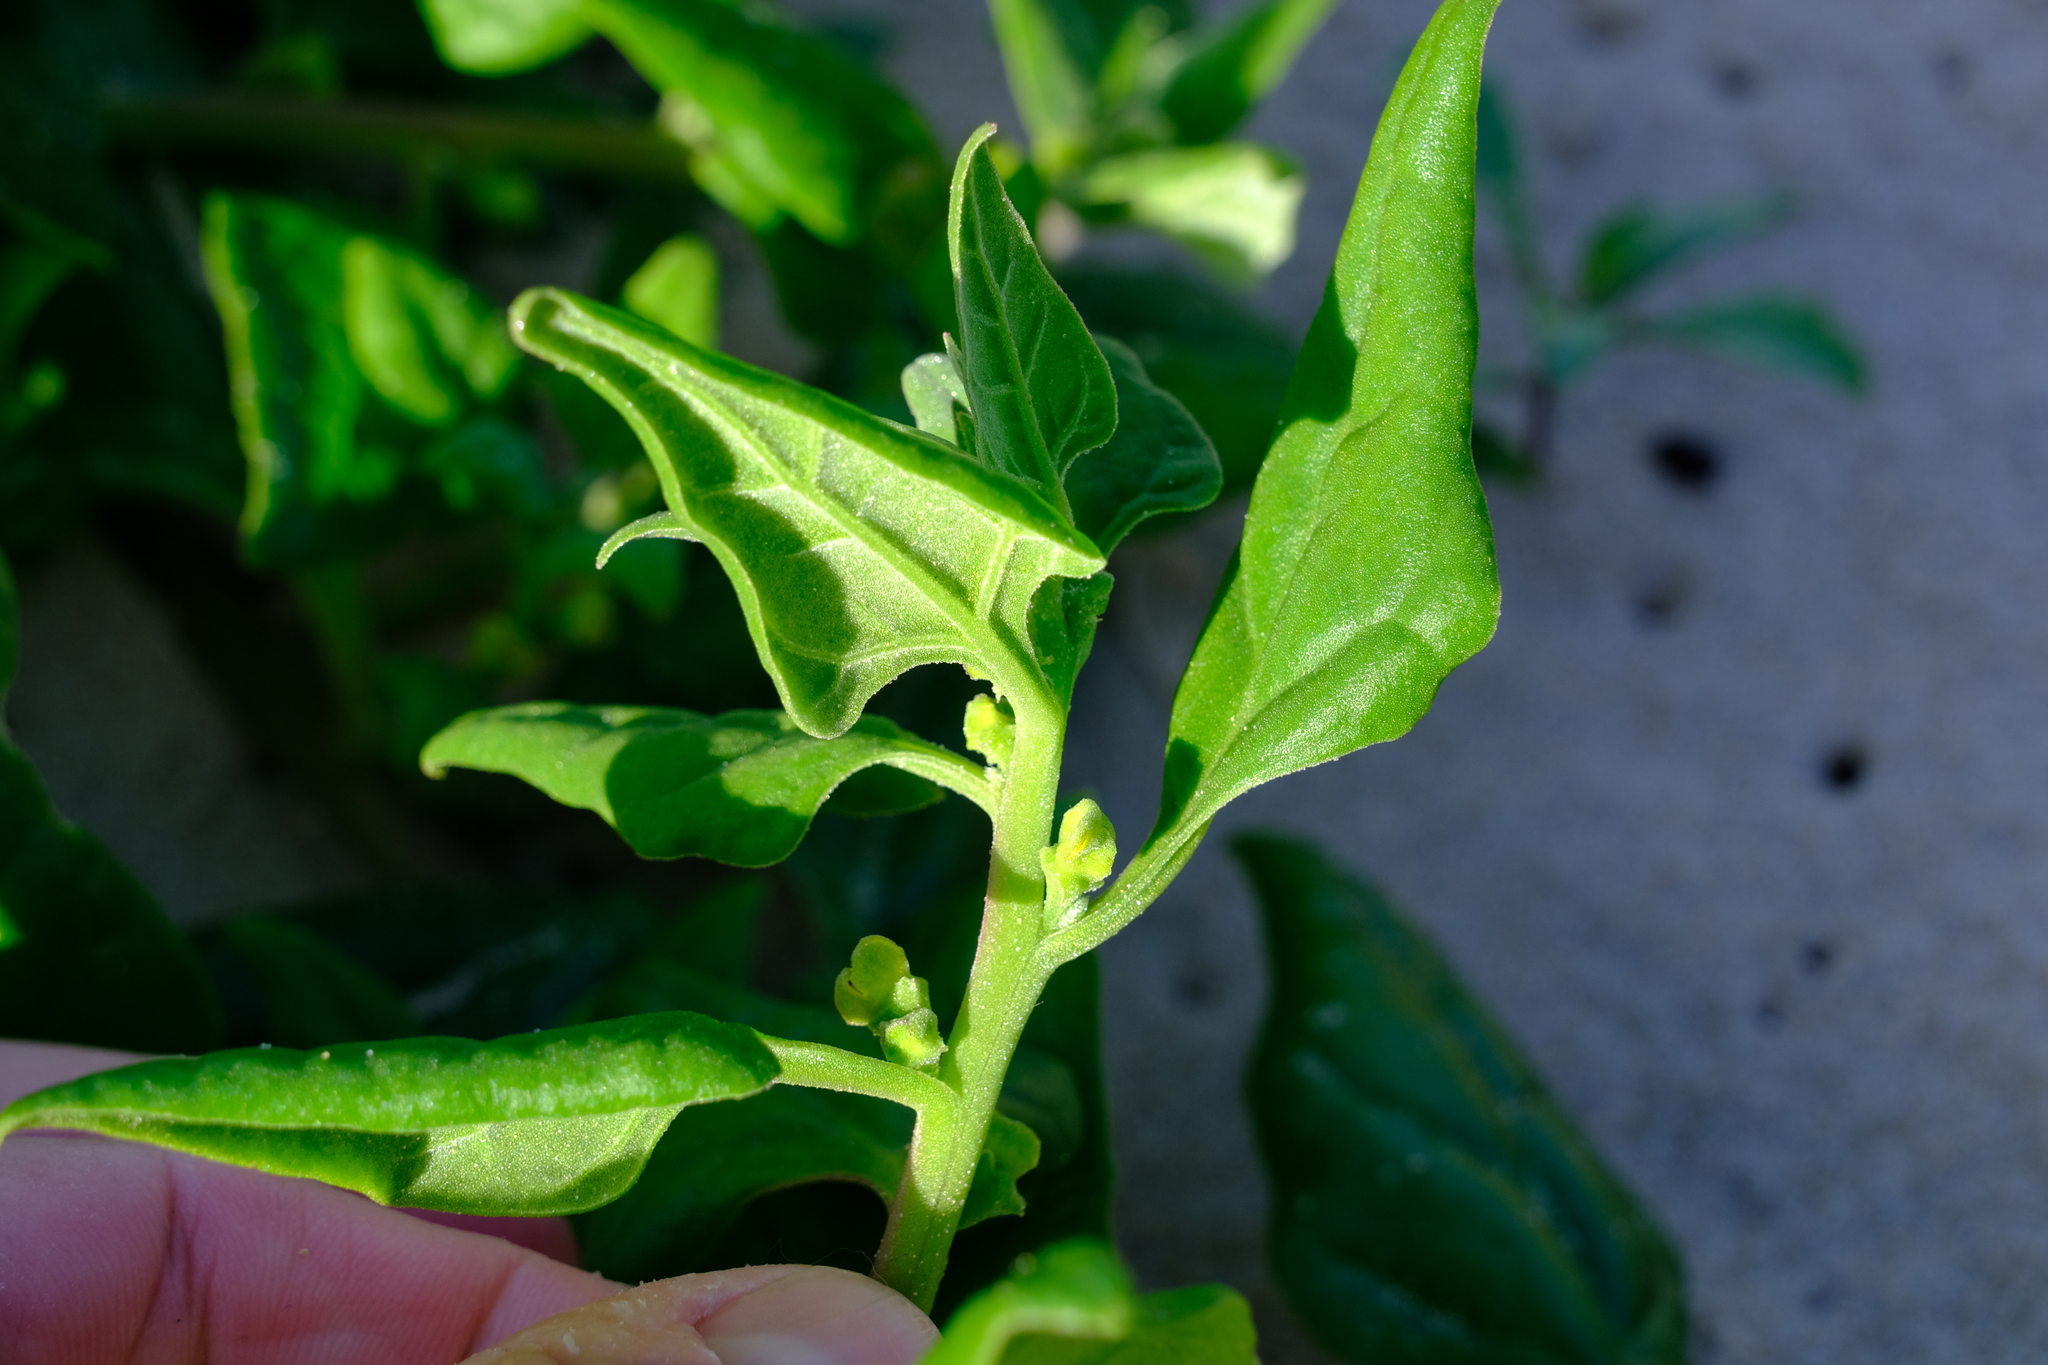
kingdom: Plantae
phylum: Tracheophyta
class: Magnoliopsida
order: Caryophyllales
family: Aizoaceae
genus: Tetragonia
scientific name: Tetragonia tetragonoides
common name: New zealand-spinach
